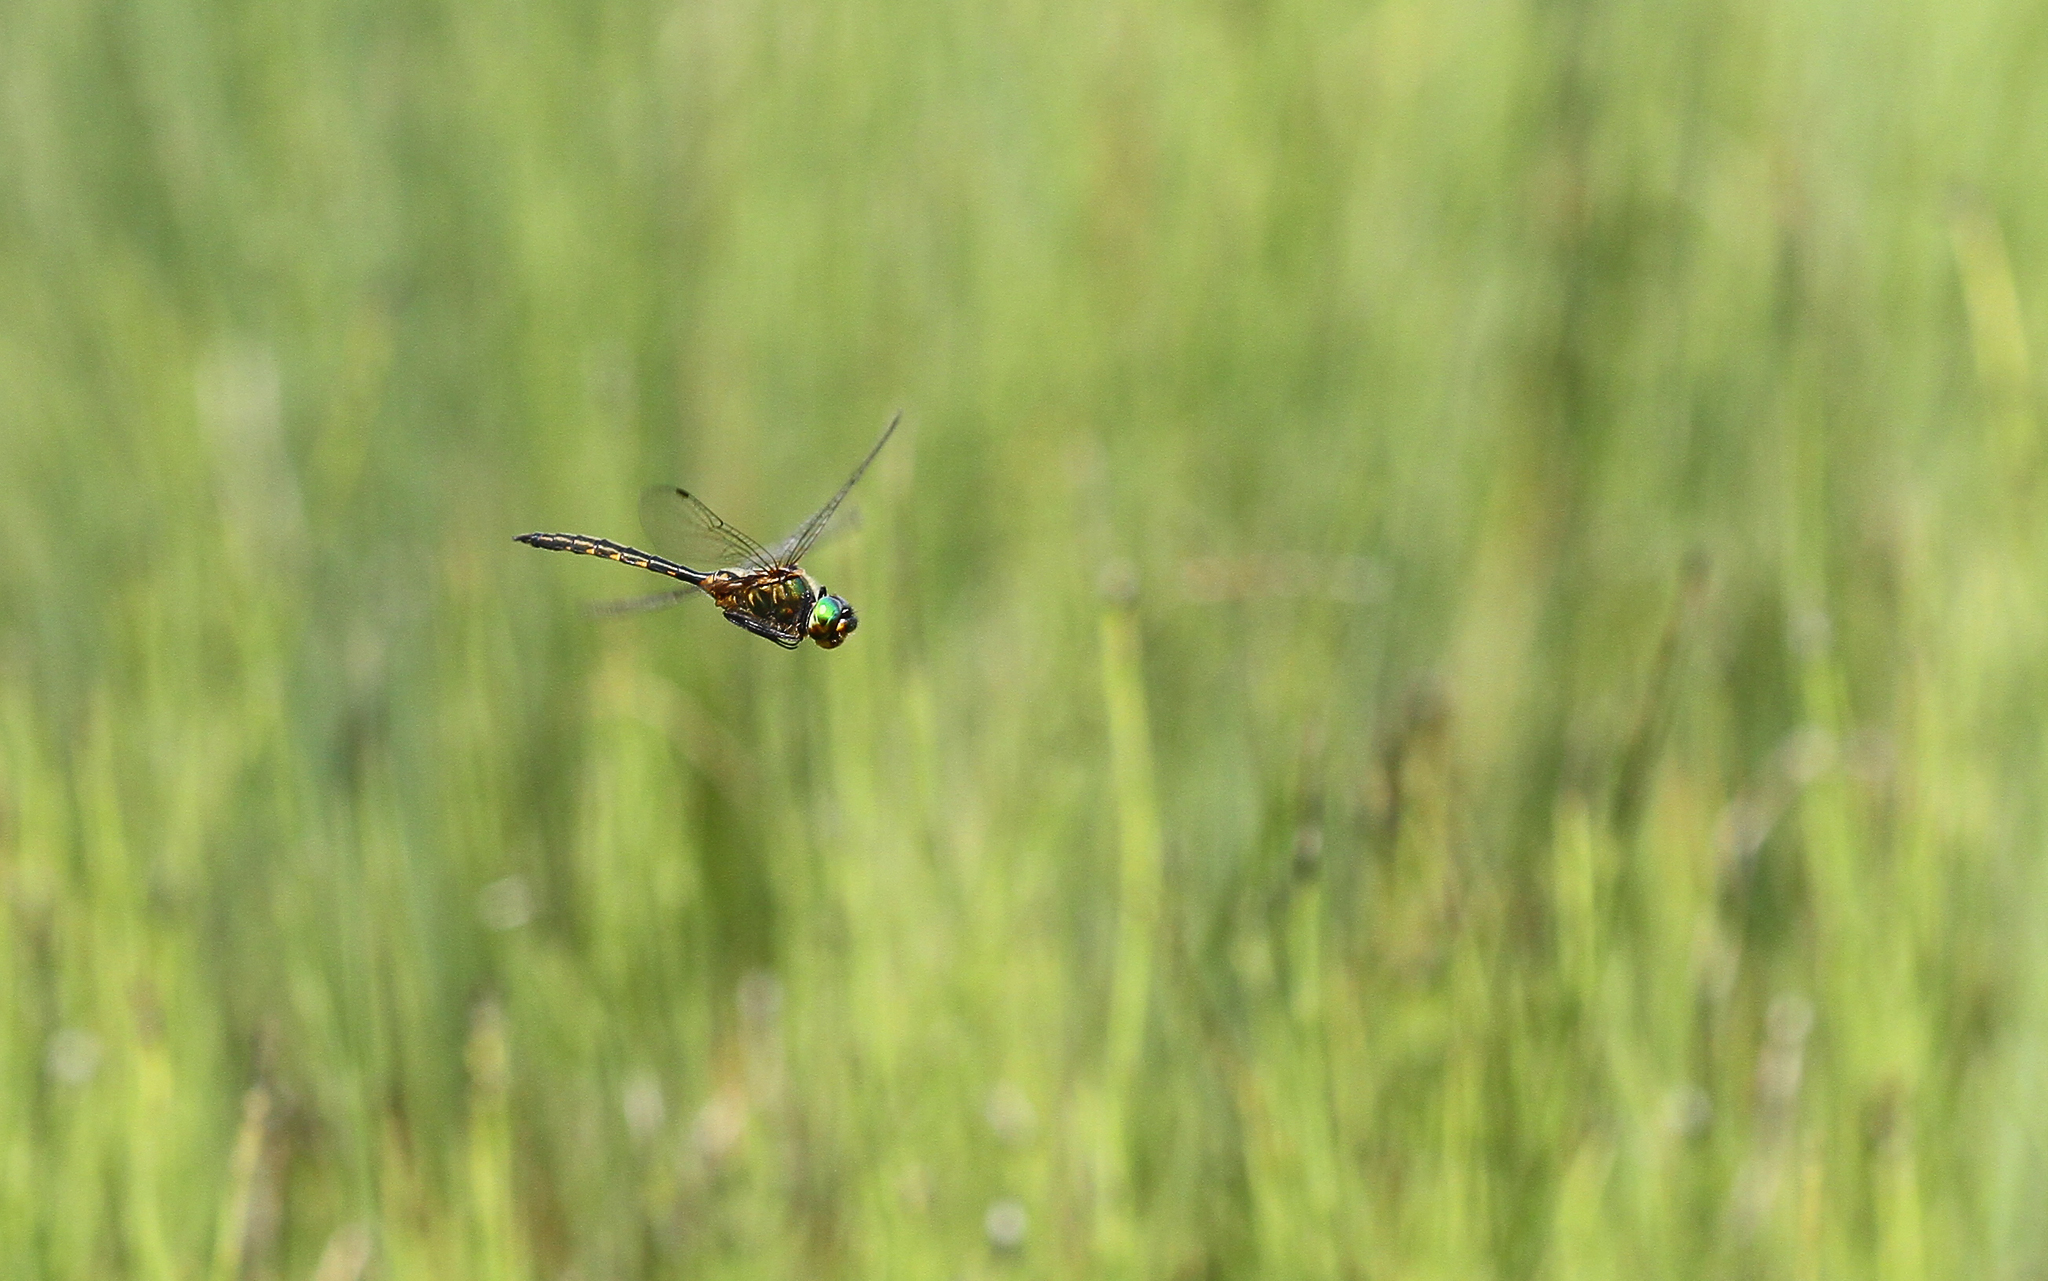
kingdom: Animalia
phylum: Arthropoda
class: Insecta
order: Odonata
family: Corduliidae
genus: Somatochlora
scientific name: Somatochlora flavomaculata
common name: Yellow-spotted emerald
